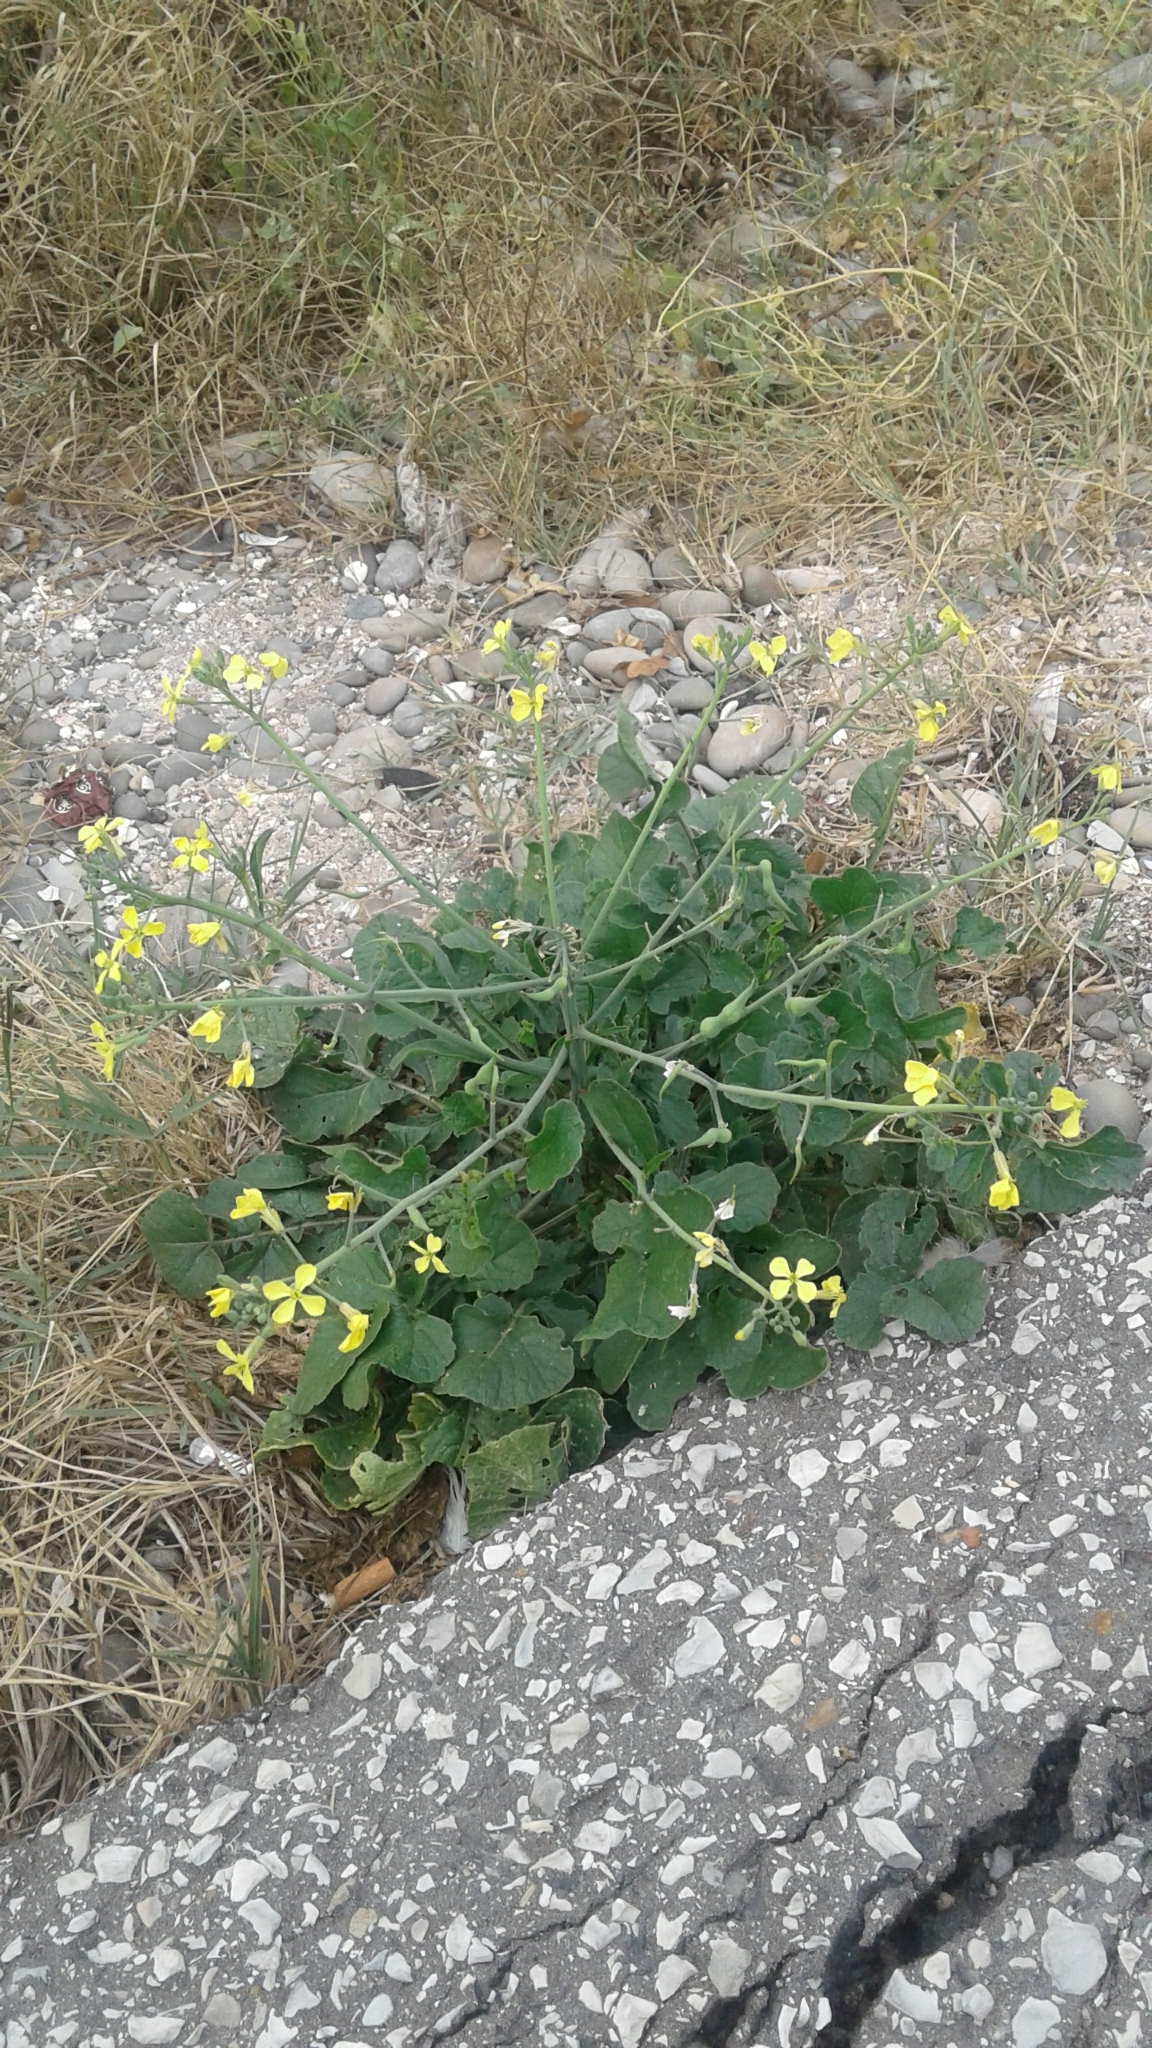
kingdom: Plantae
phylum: Tracheophyta
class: Magnoliopsida
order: Brassicales
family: Brassicaceae
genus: Raphanus
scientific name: Raphanus raphanistrum
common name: Wild radish
